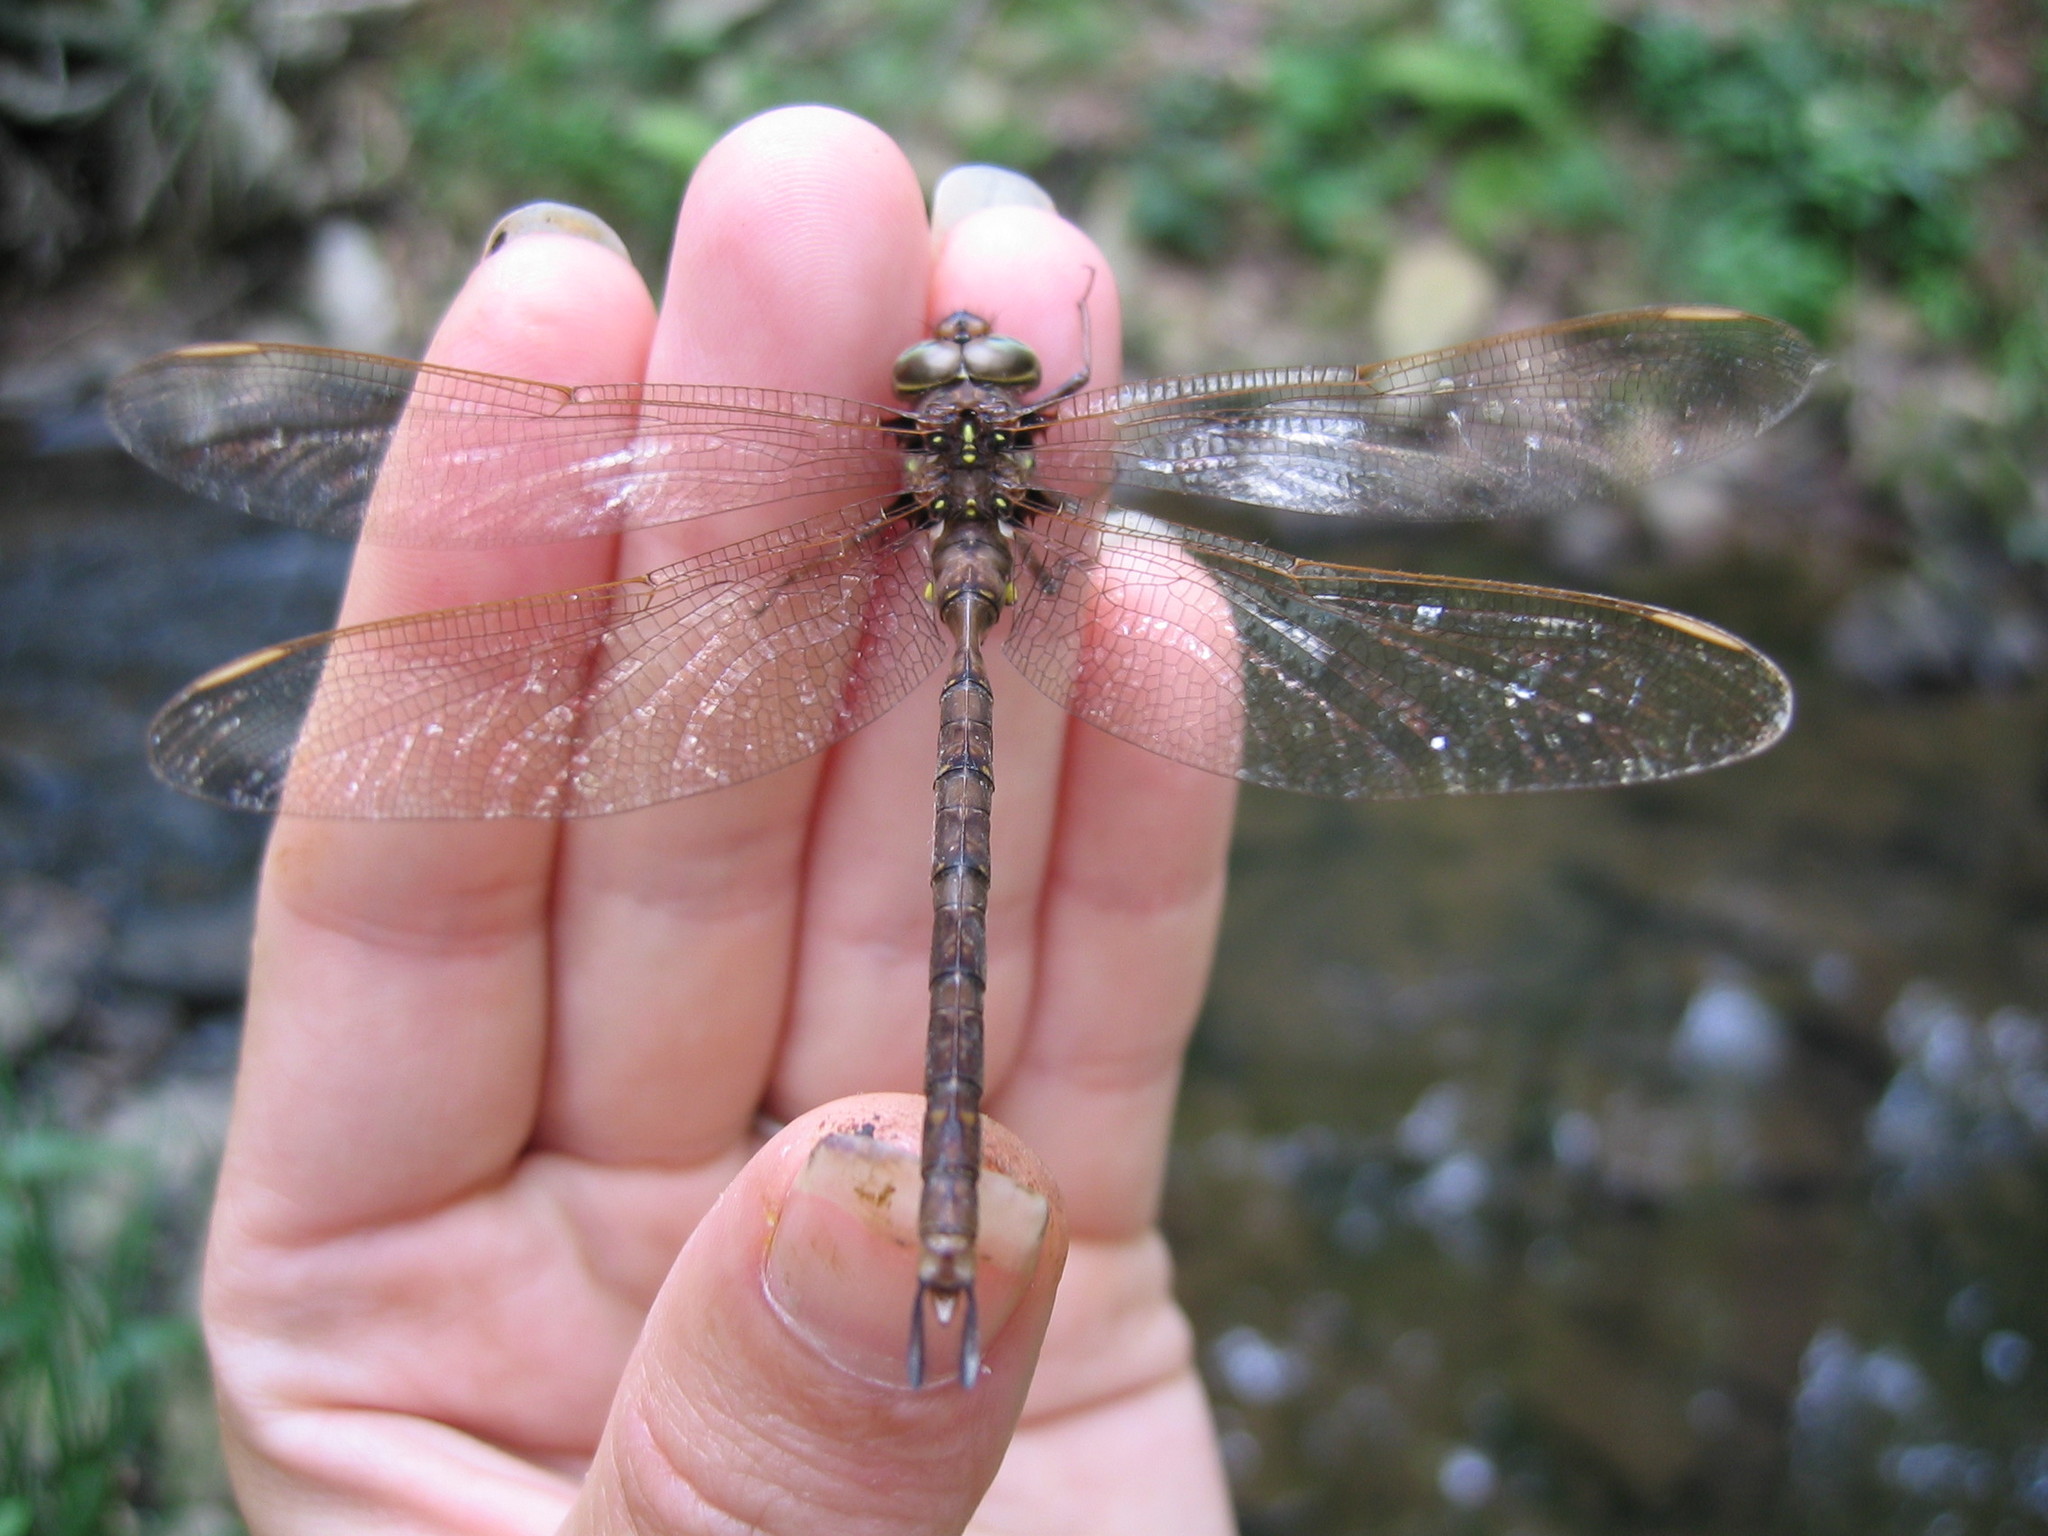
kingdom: Animalia
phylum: Arthropoda
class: Insecta
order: Odonata
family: Aeshnidae
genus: Boyeria
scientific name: Boyeria vinosa
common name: Fawn darner
